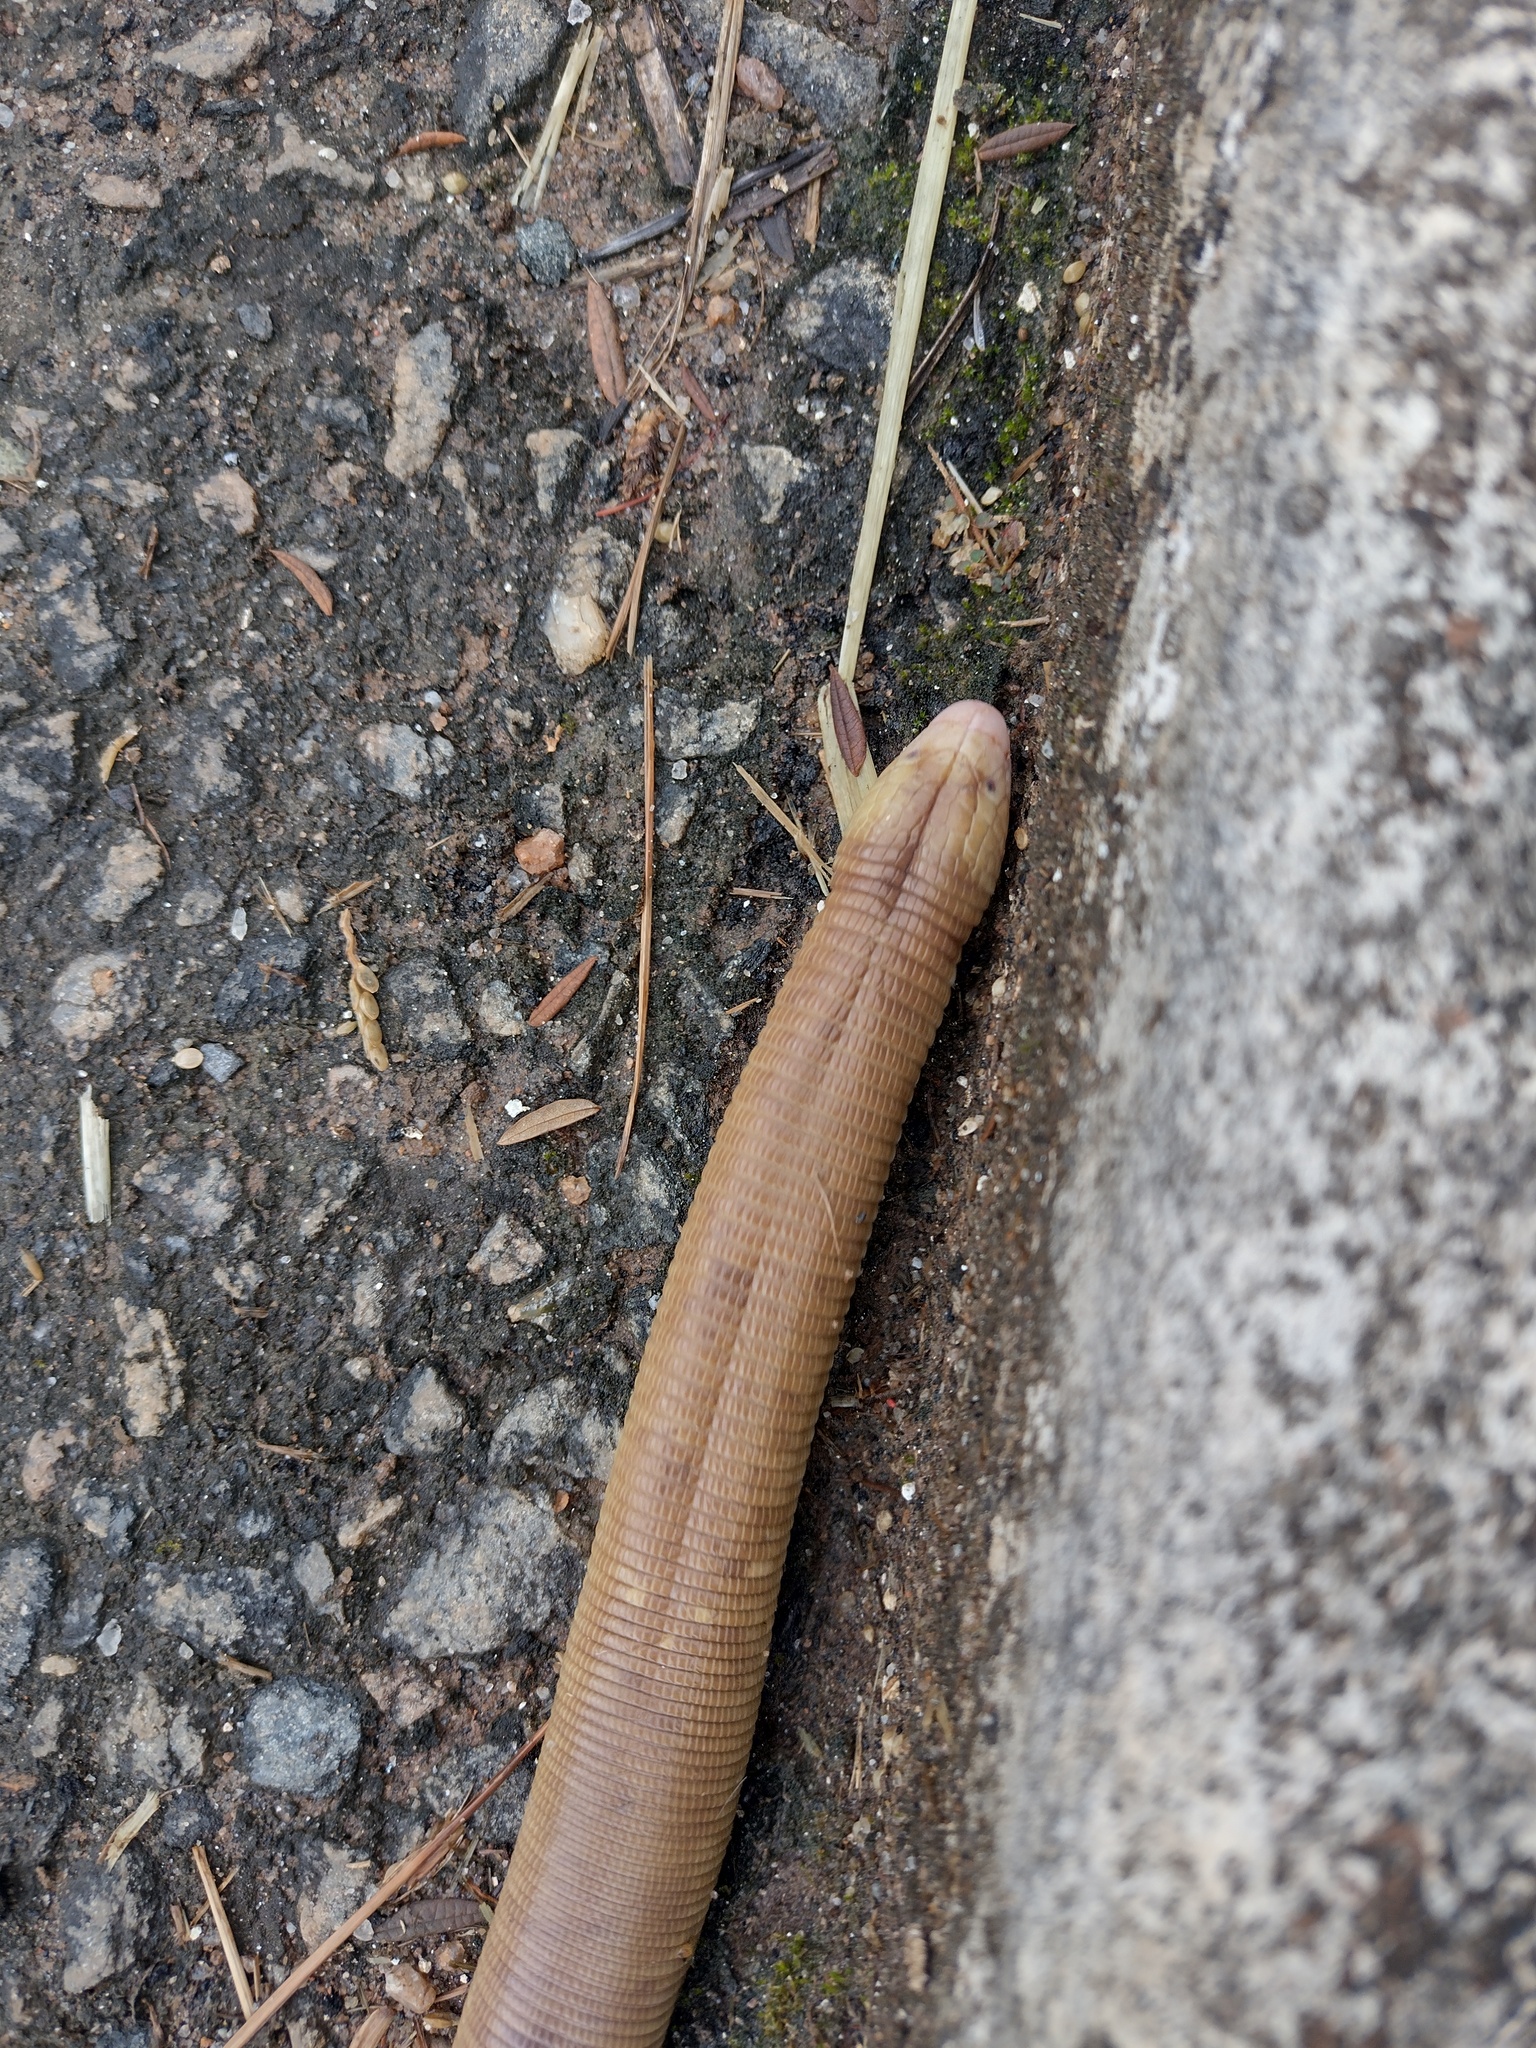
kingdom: Animalia
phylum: Chordata
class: Squamata
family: Amphisbaenidae
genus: Amphisbaena
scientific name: Amphisbaena alba
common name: Red worm lizard
